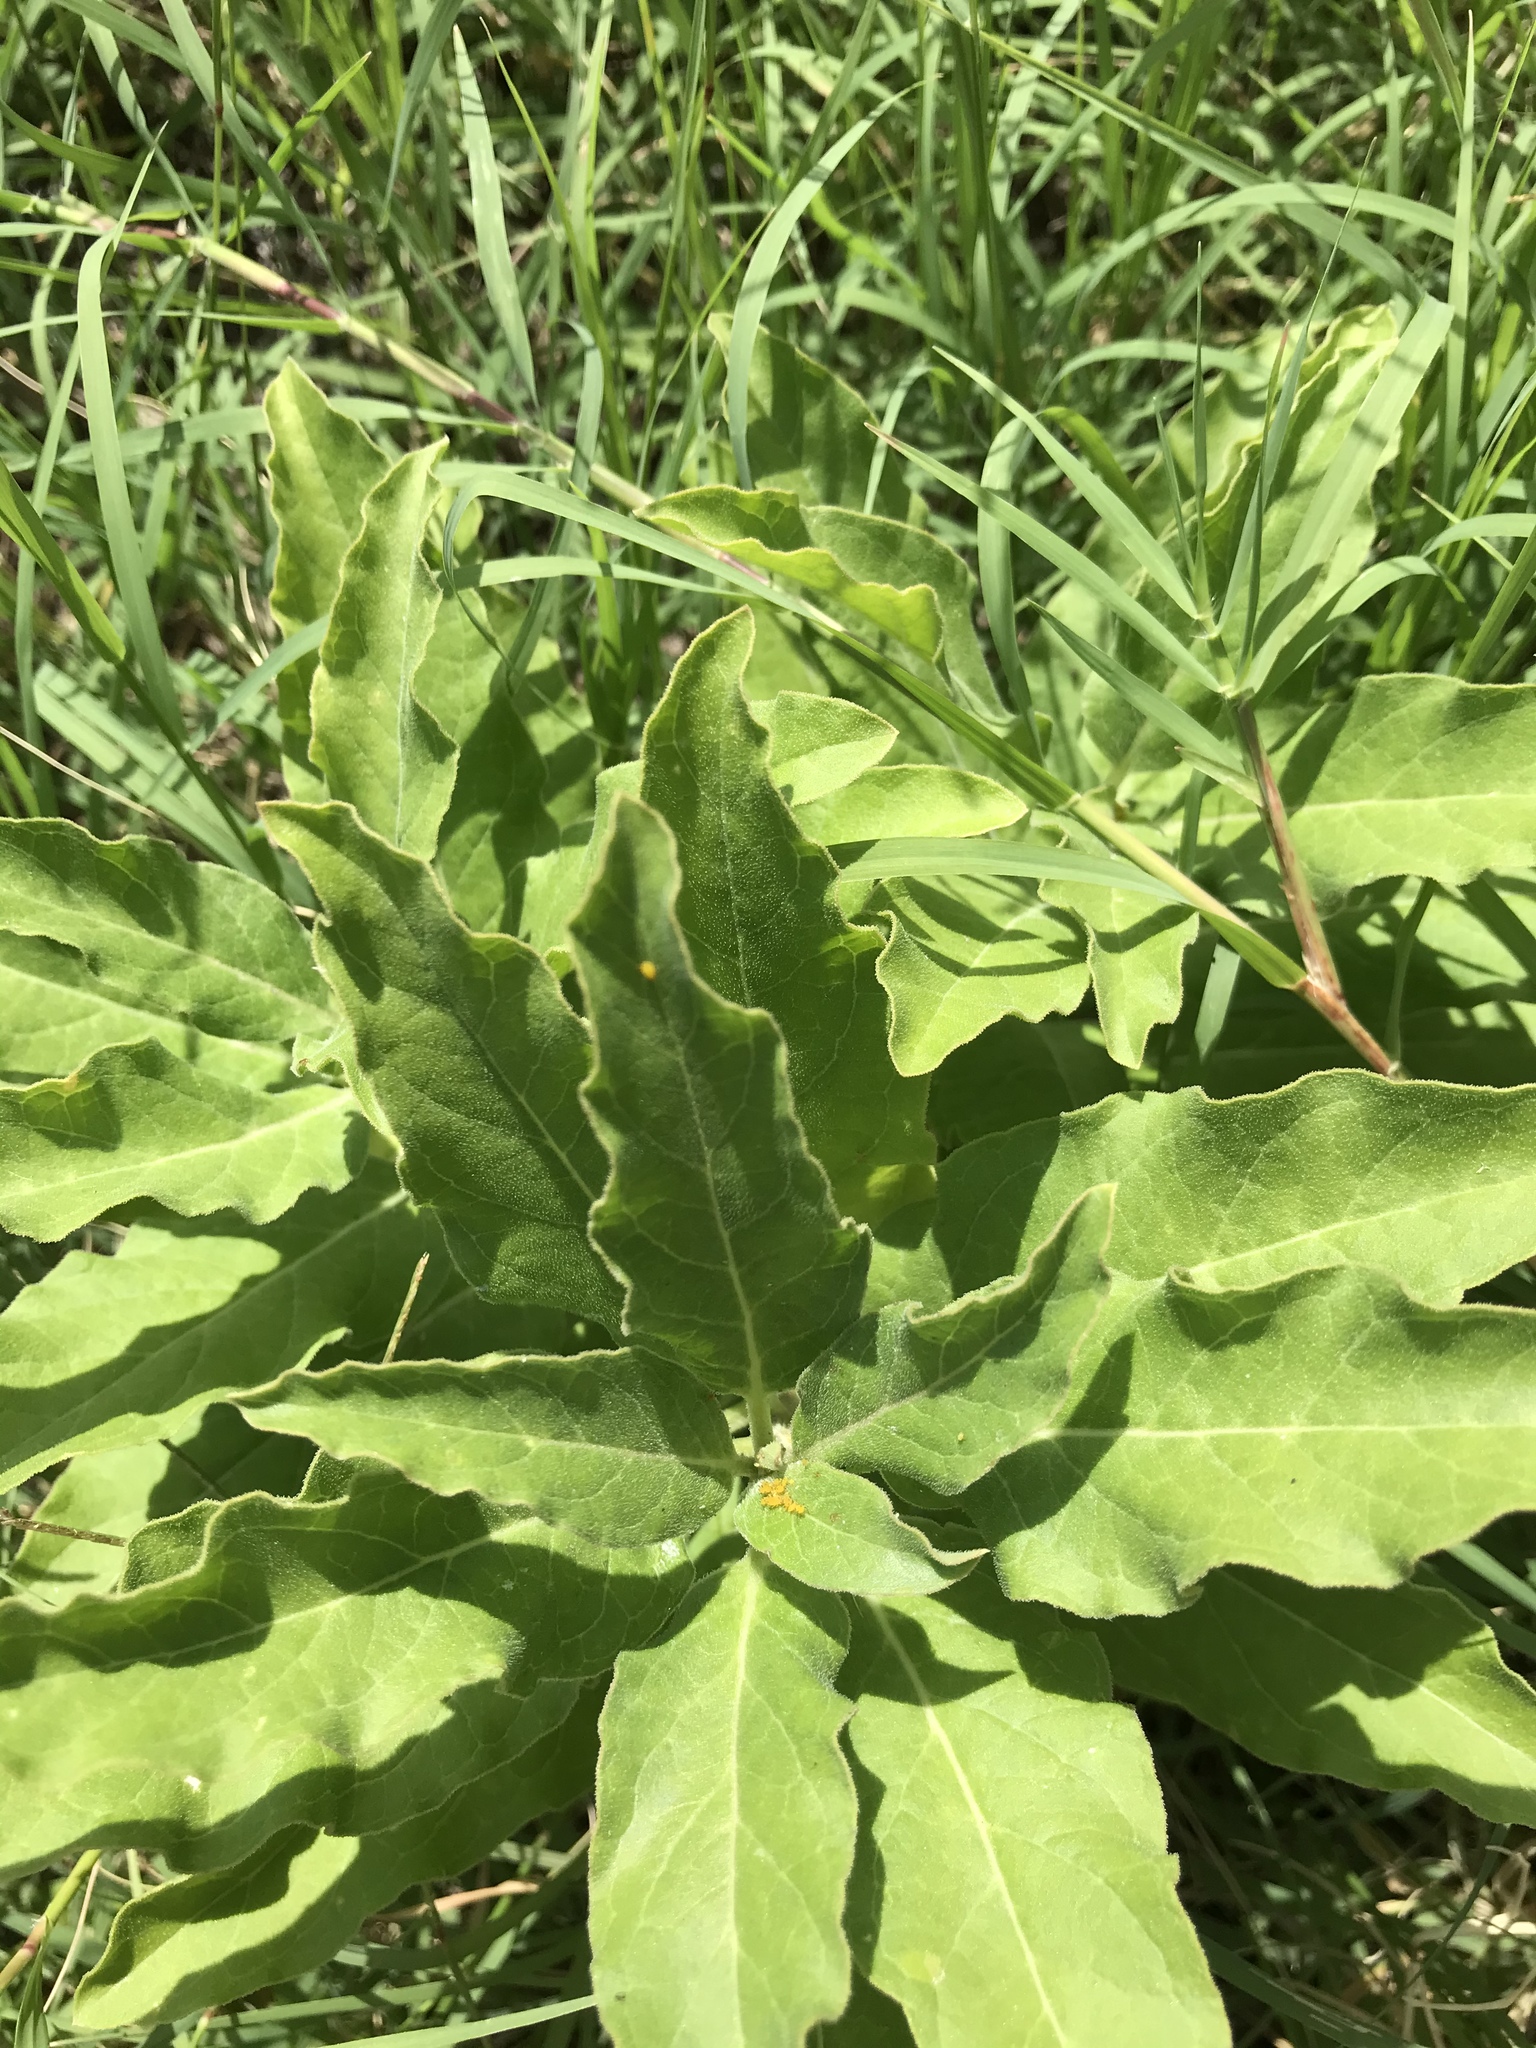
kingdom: Plantae
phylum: Tracheophyta
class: Magnoliopsida
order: Gentianales
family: Apocynaceae
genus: Asclepias
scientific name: Asclepias oenotheroides
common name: Zizotes milkweed
